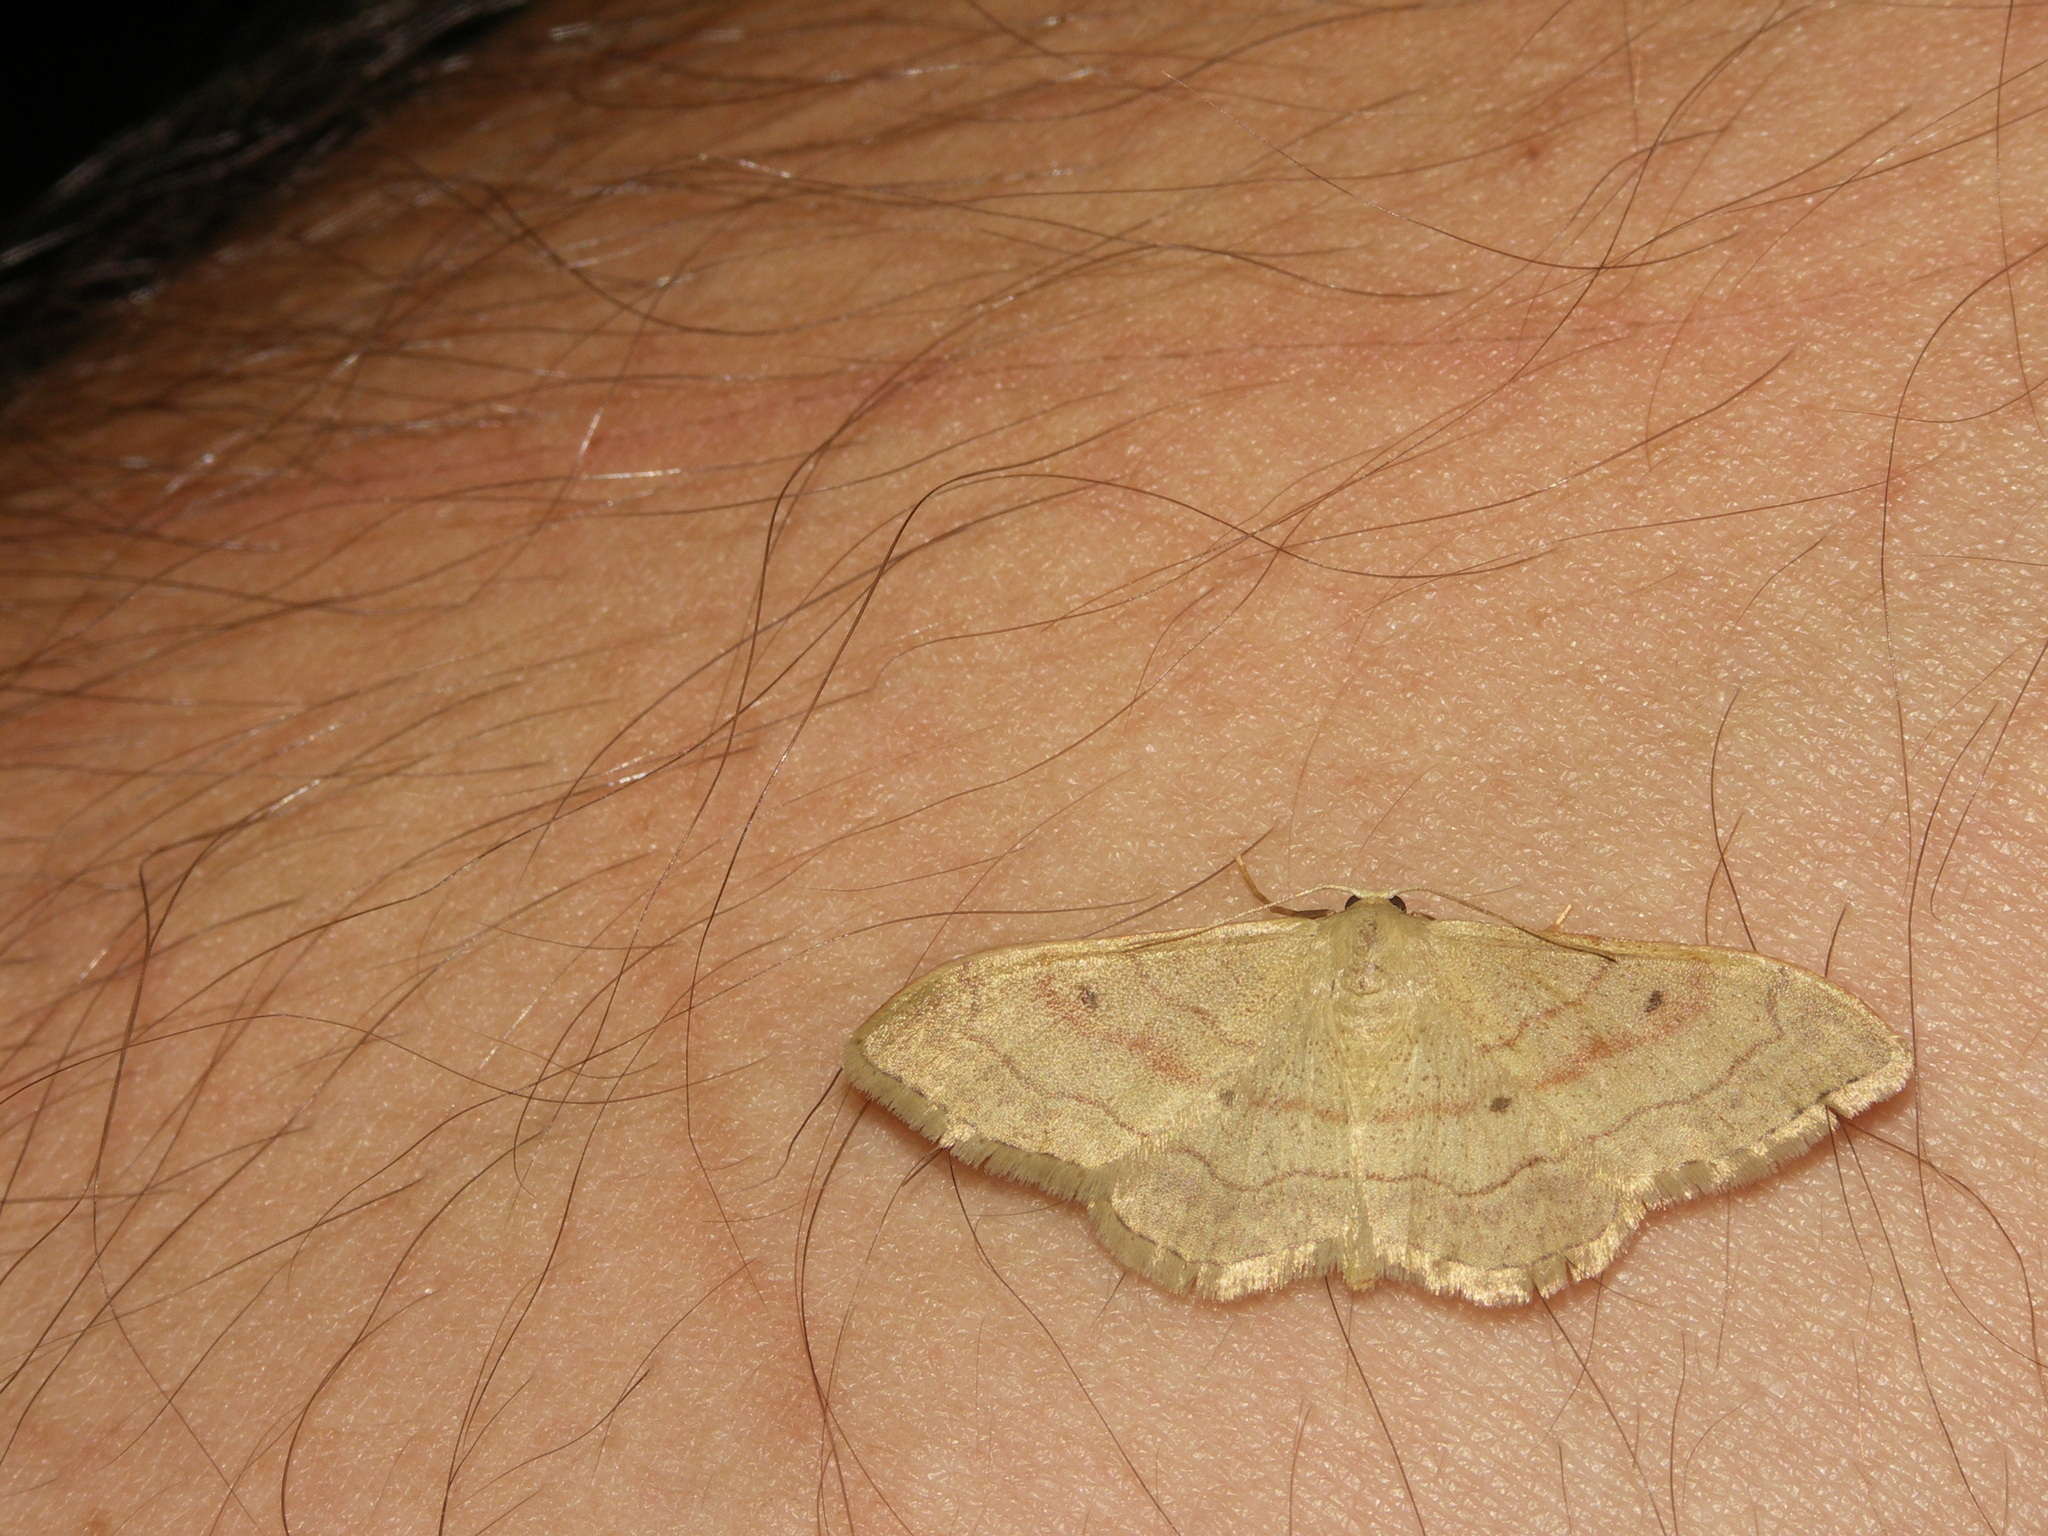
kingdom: Animalia
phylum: Arthropoda
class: Insecta
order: Lepidoptera
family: Geometridae
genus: Idaea
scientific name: Idaea bilinearia
